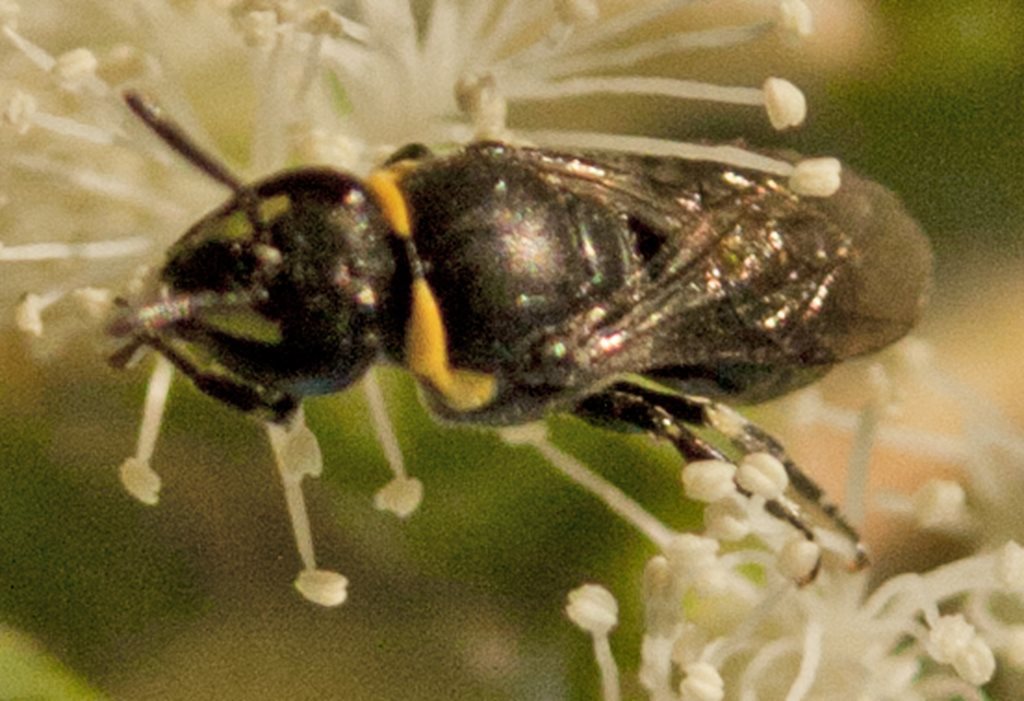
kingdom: Animalia
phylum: Arthropoda
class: Insecta
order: Hymenoptera
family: Colletidae
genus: Hylaeus
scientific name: Hylaeus amiculiformis
